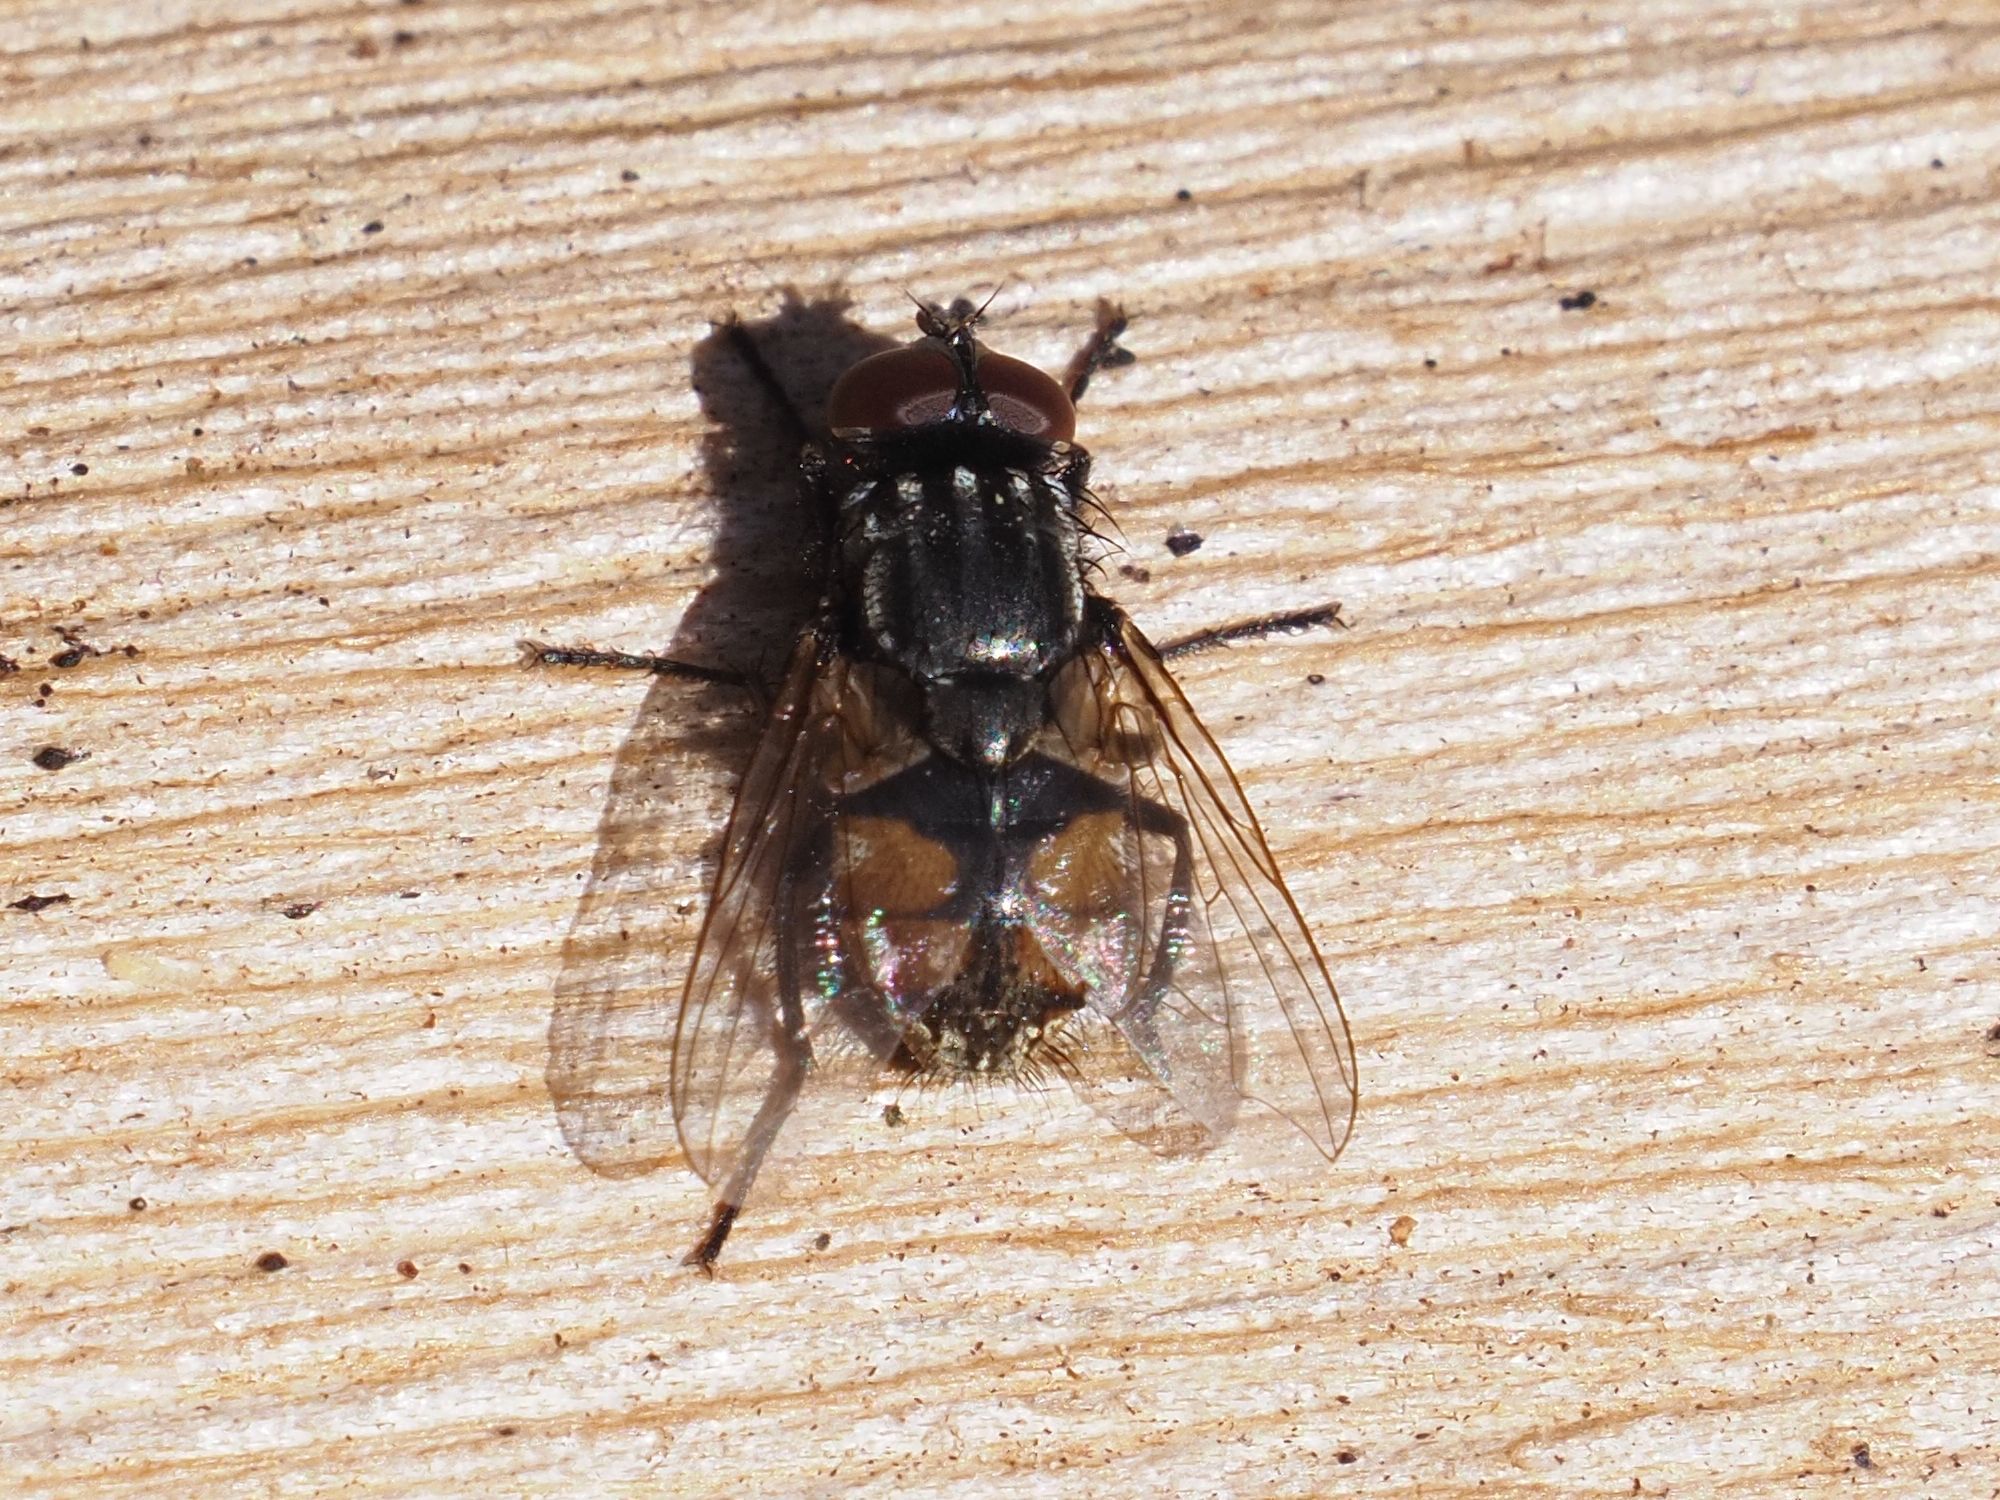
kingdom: Animalia
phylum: Arthropoda
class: Insecta
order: Diptera
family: Muscidae
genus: Musca
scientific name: Musca autumnalis
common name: Face fly
